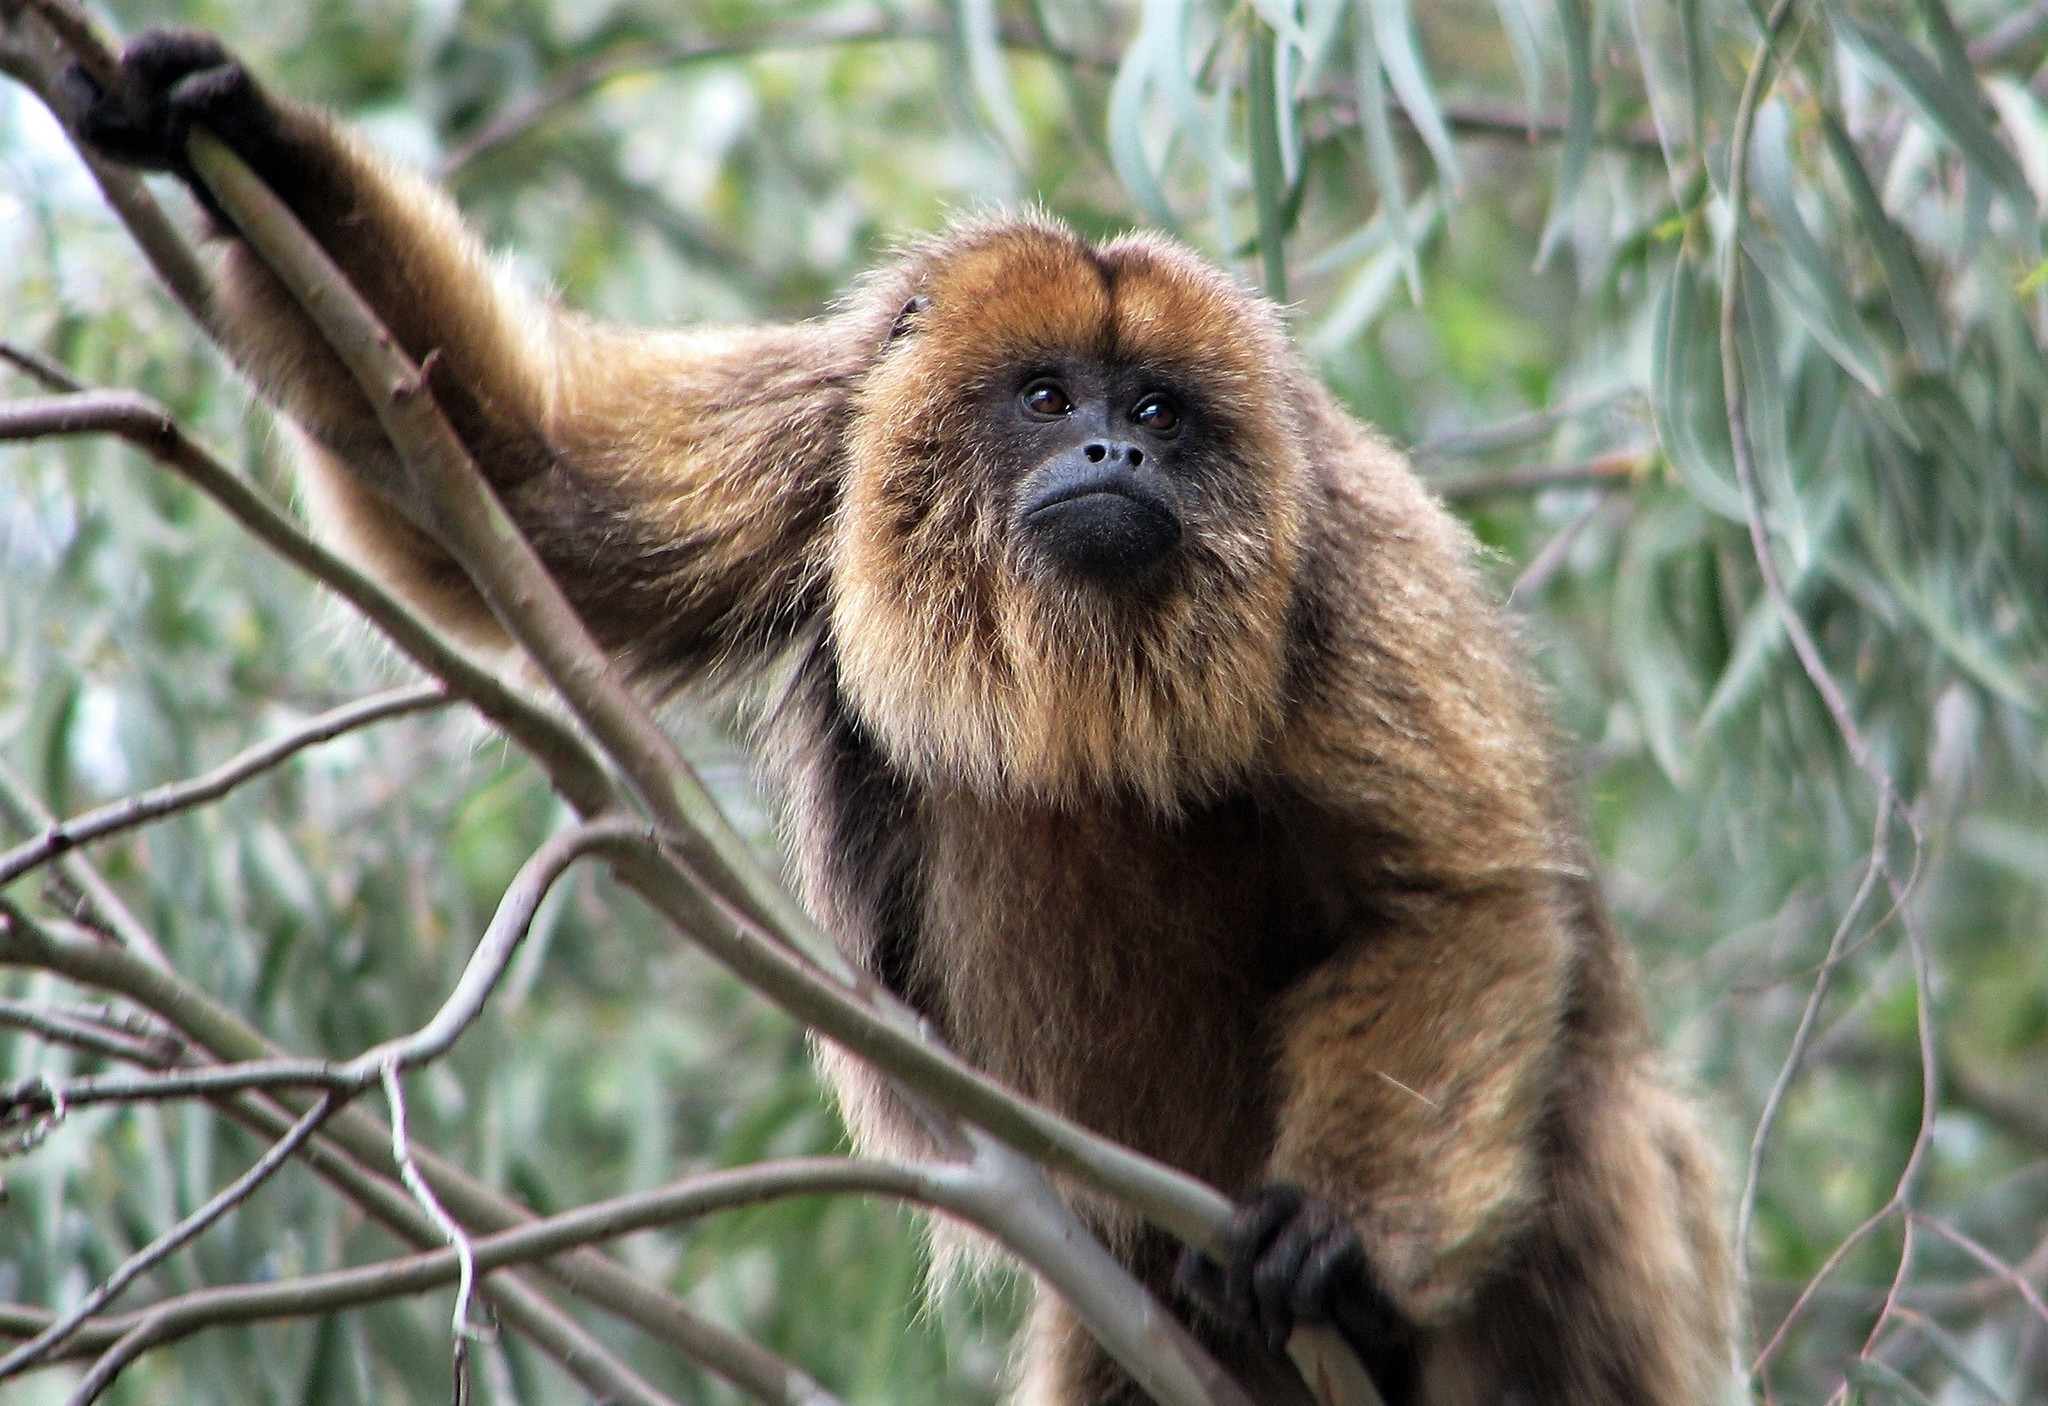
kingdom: Animalia
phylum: Chordata
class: Mammalia
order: Primates
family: Atelidae
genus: Alouatta
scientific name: Alouatta caraya
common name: Black howler
